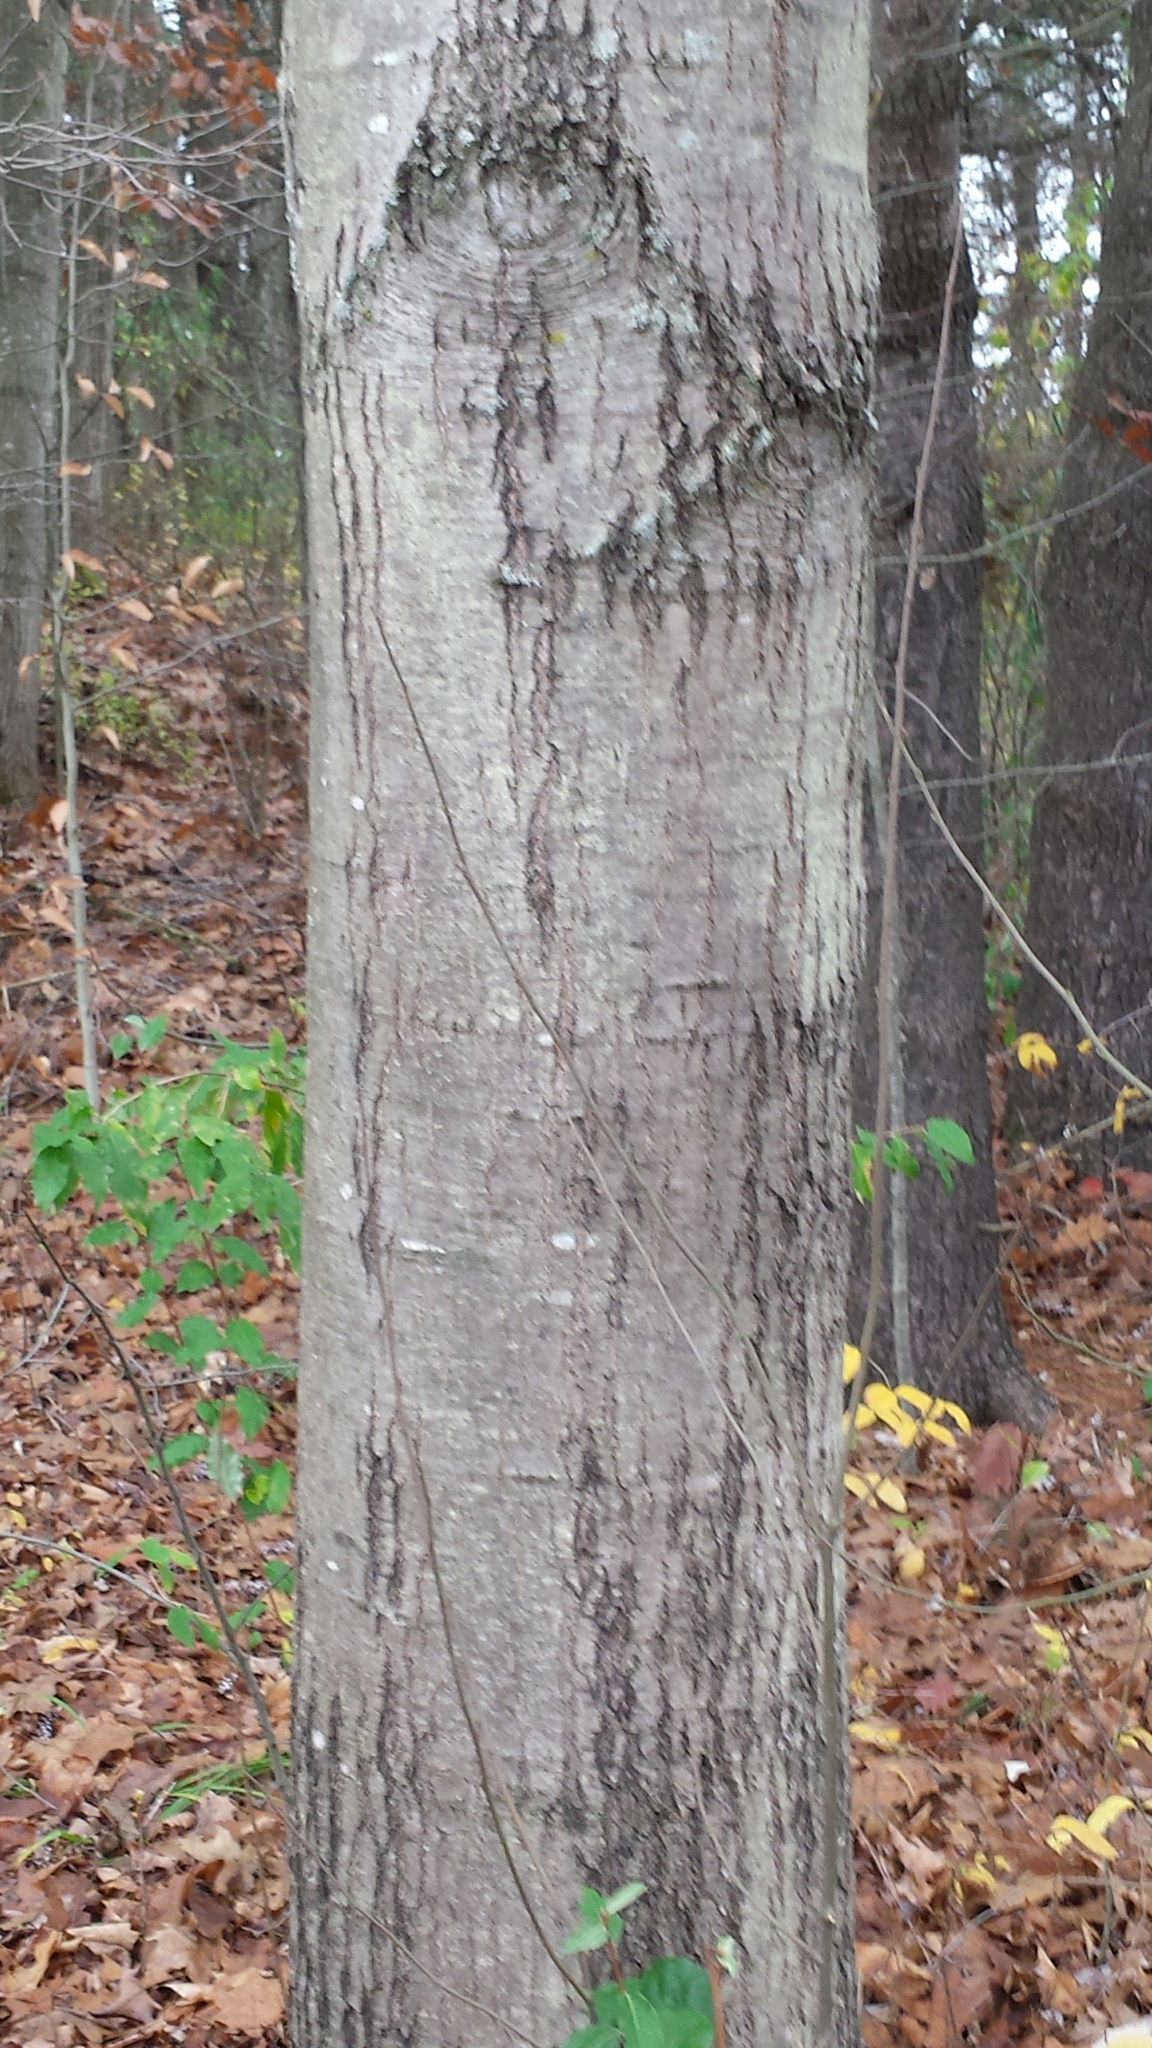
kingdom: Plantae
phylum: Tracheophyta
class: Magnoliopsida
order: Fagales
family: Fagaceae
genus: Quercus
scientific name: Quercus rubra
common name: Red oak
